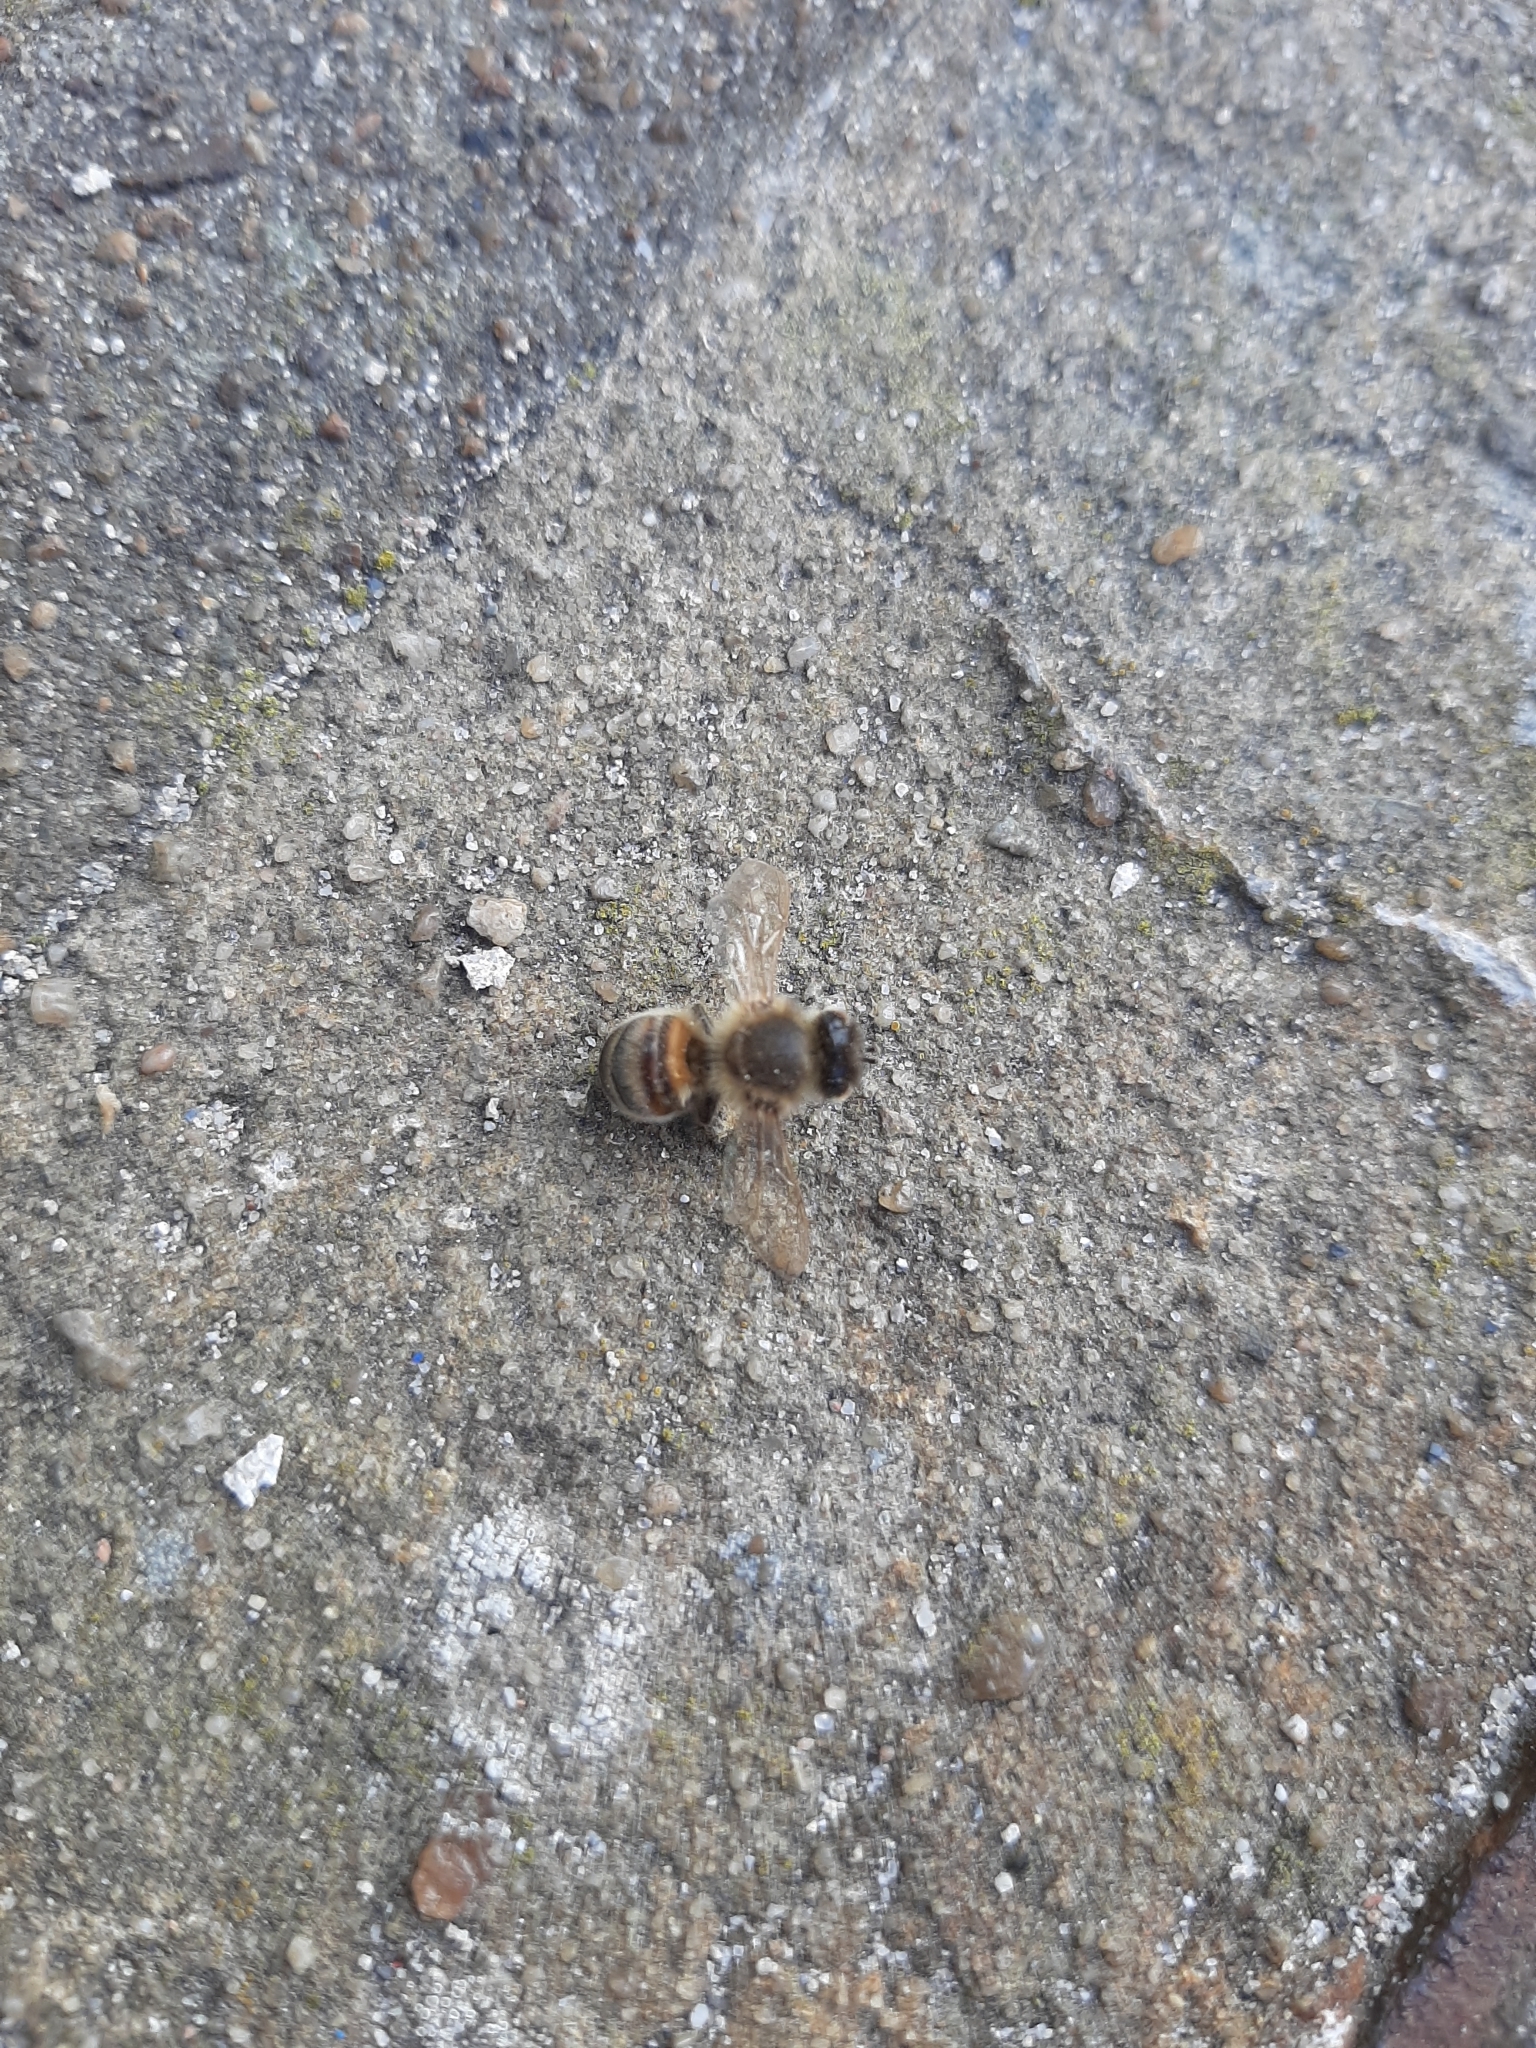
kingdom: Animalia
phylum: Arthropoda
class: Insecta
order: Hymenoptera
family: Apidae
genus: Apis
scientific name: Apis mellifera
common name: Honey bee
